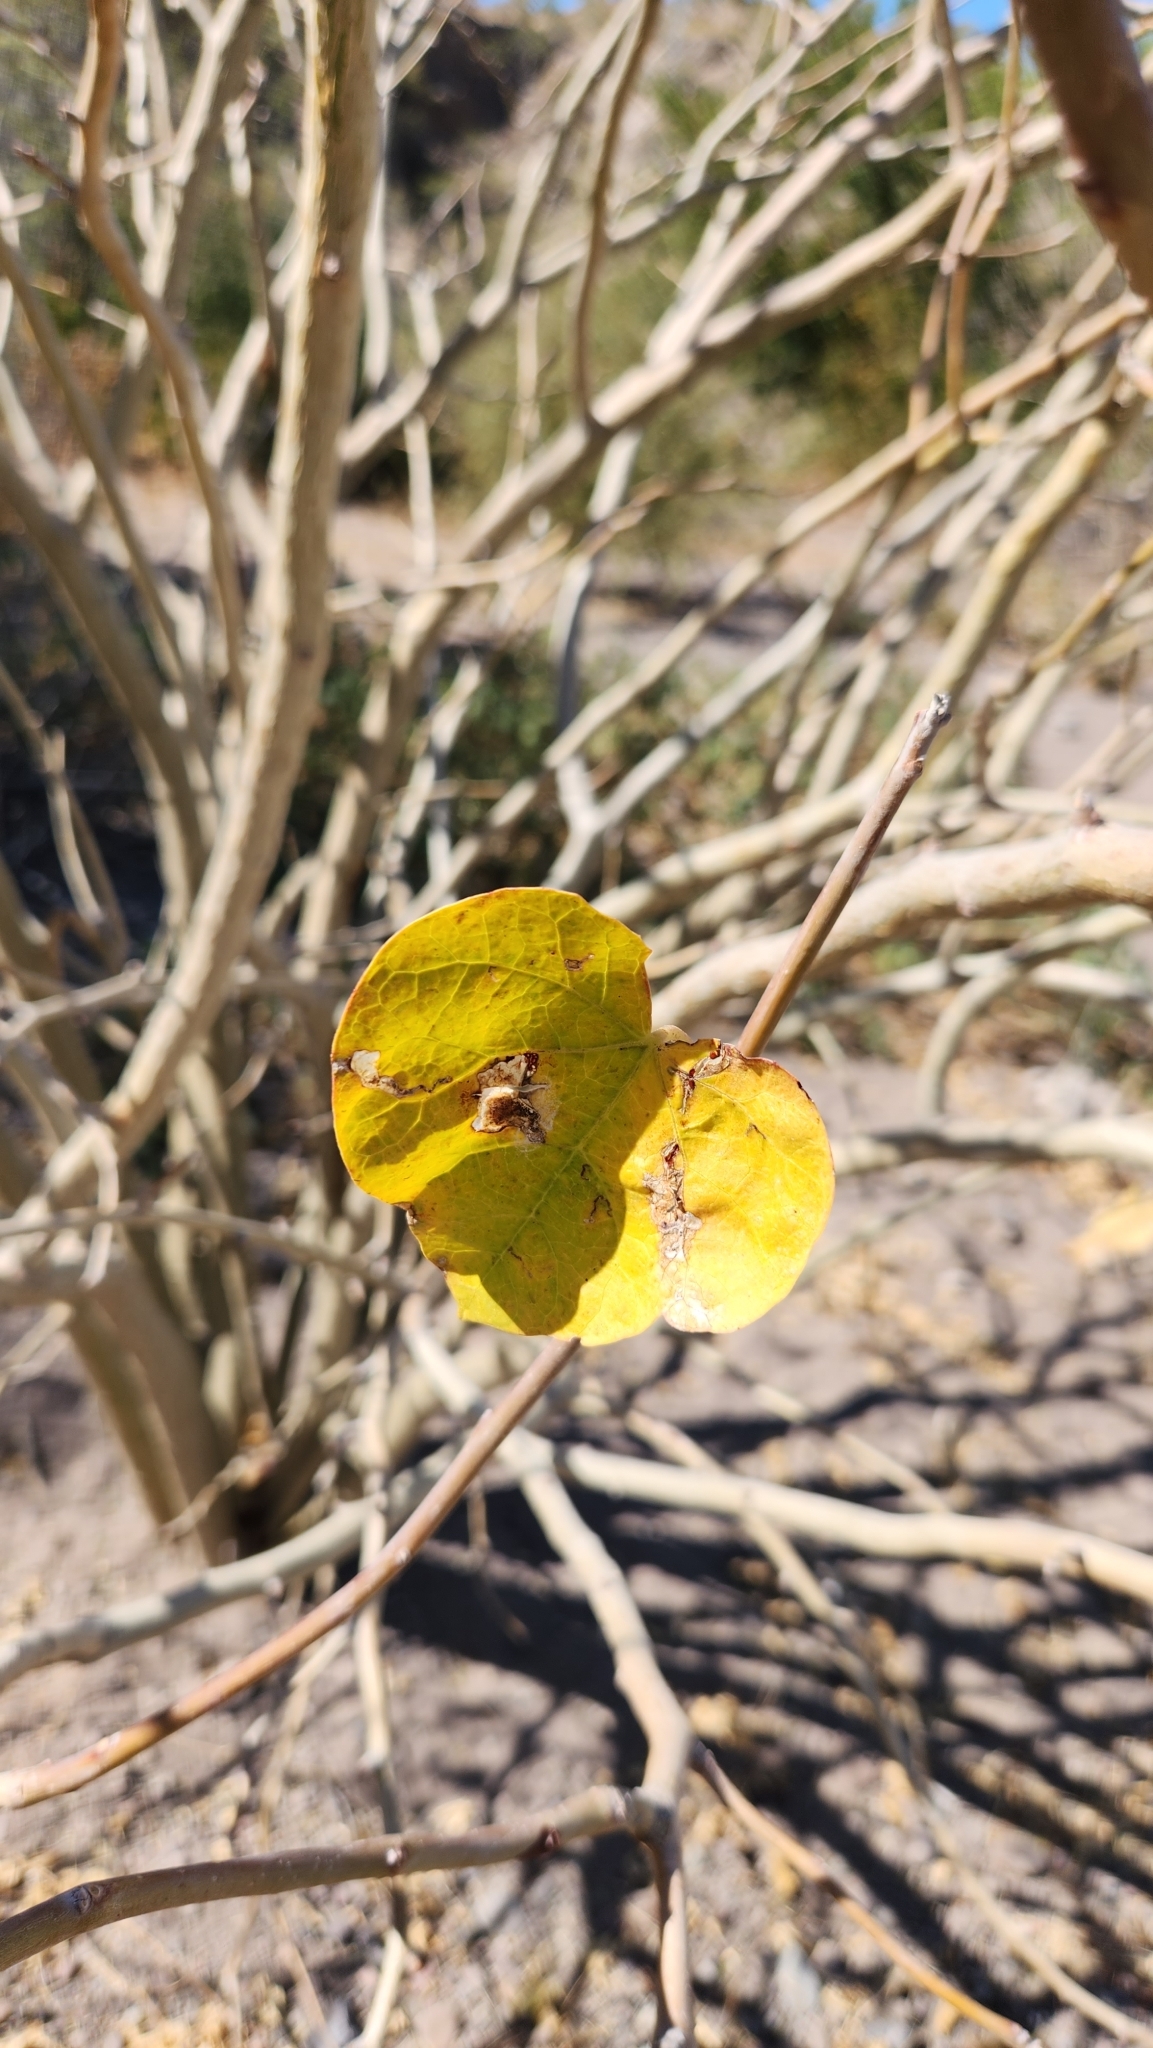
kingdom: Plantae
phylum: Tracheophyta
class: Magnoliopsida
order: Malpighiales
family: Euphorbiaceae
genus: Jatropha
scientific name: Jatropha cinerea
